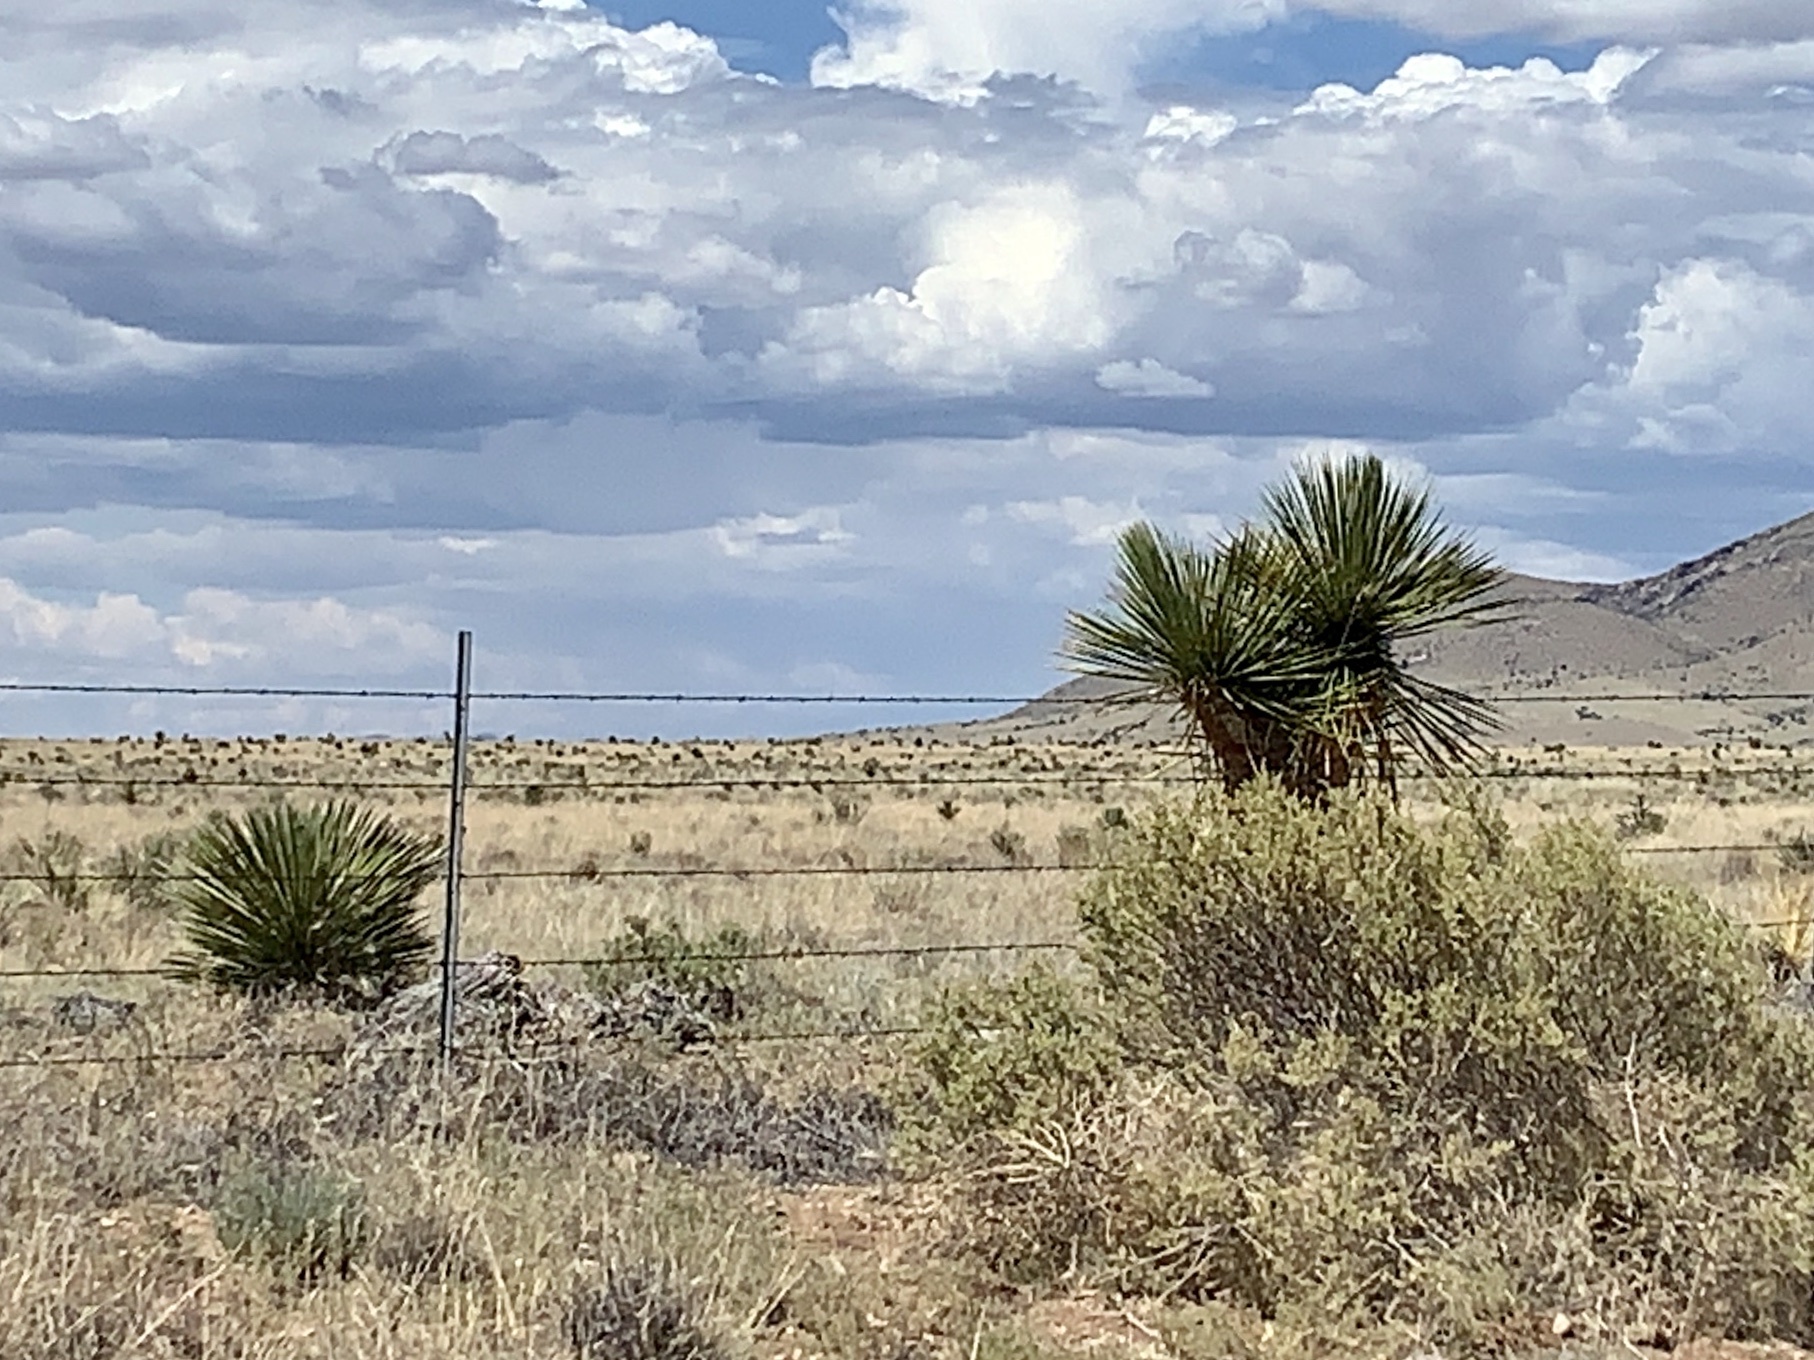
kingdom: Plantae
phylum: Tracheophyta
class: Liliopsida
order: Asparagales
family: Asparagaceae
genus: Yucca
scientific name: Yucca elata
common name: Palmella
